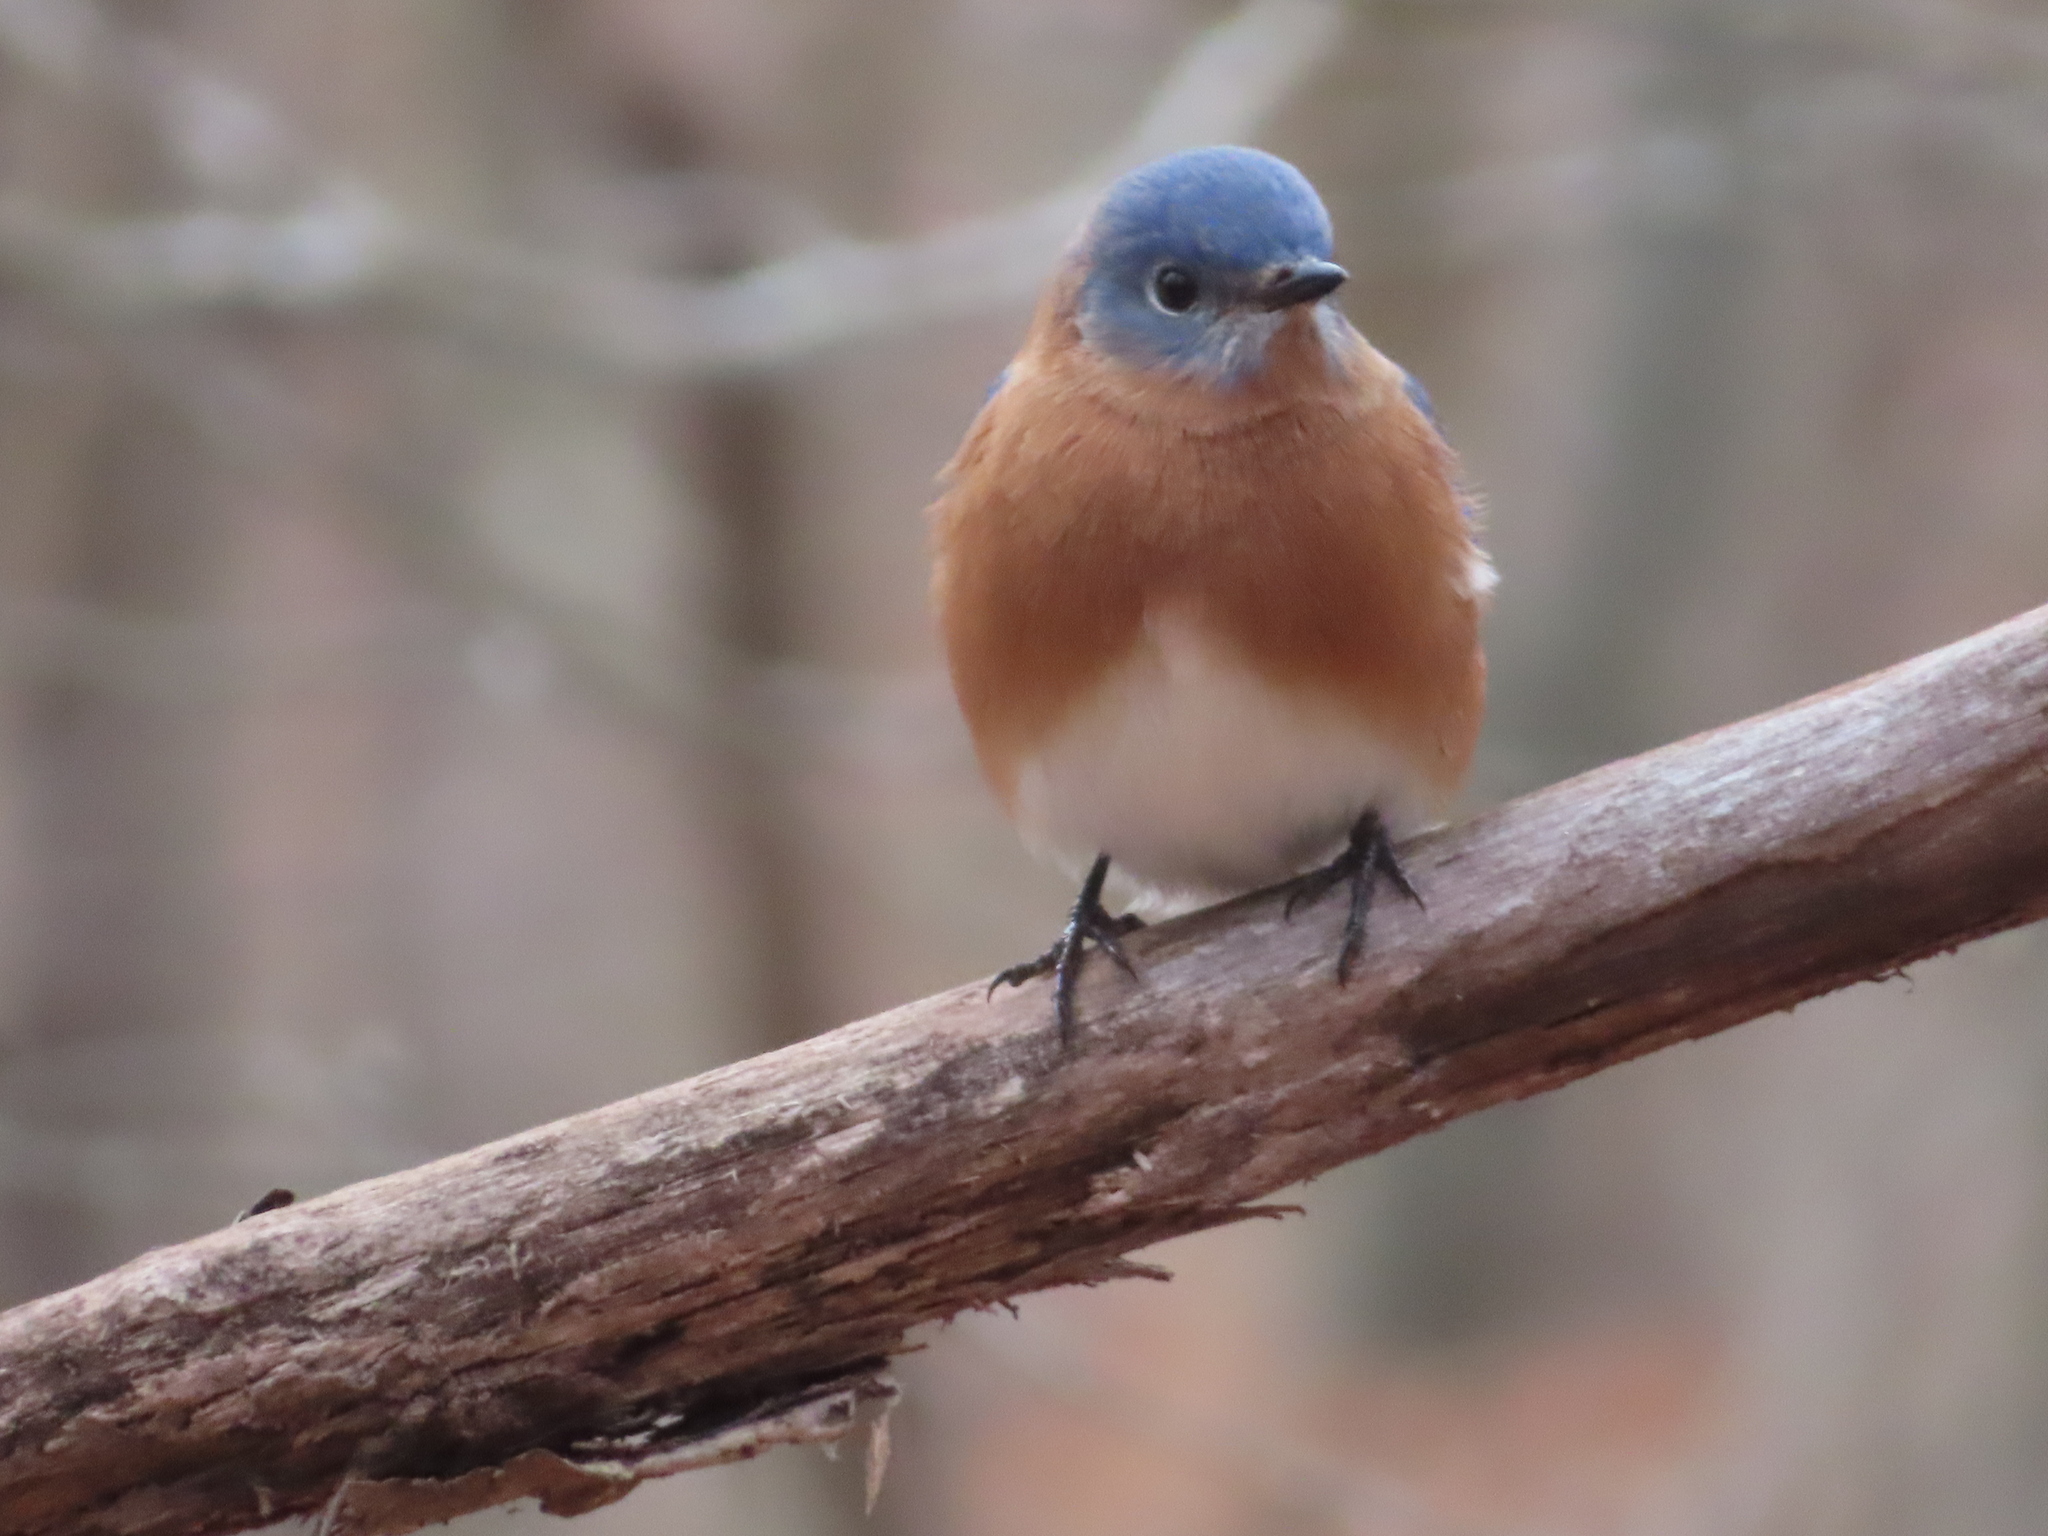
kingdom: Animalia
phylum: Chordata
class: Aves
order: Passeriformes
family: Turdidae
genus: Sialia
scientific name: Sialia sialis
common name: Eastern bluebird
